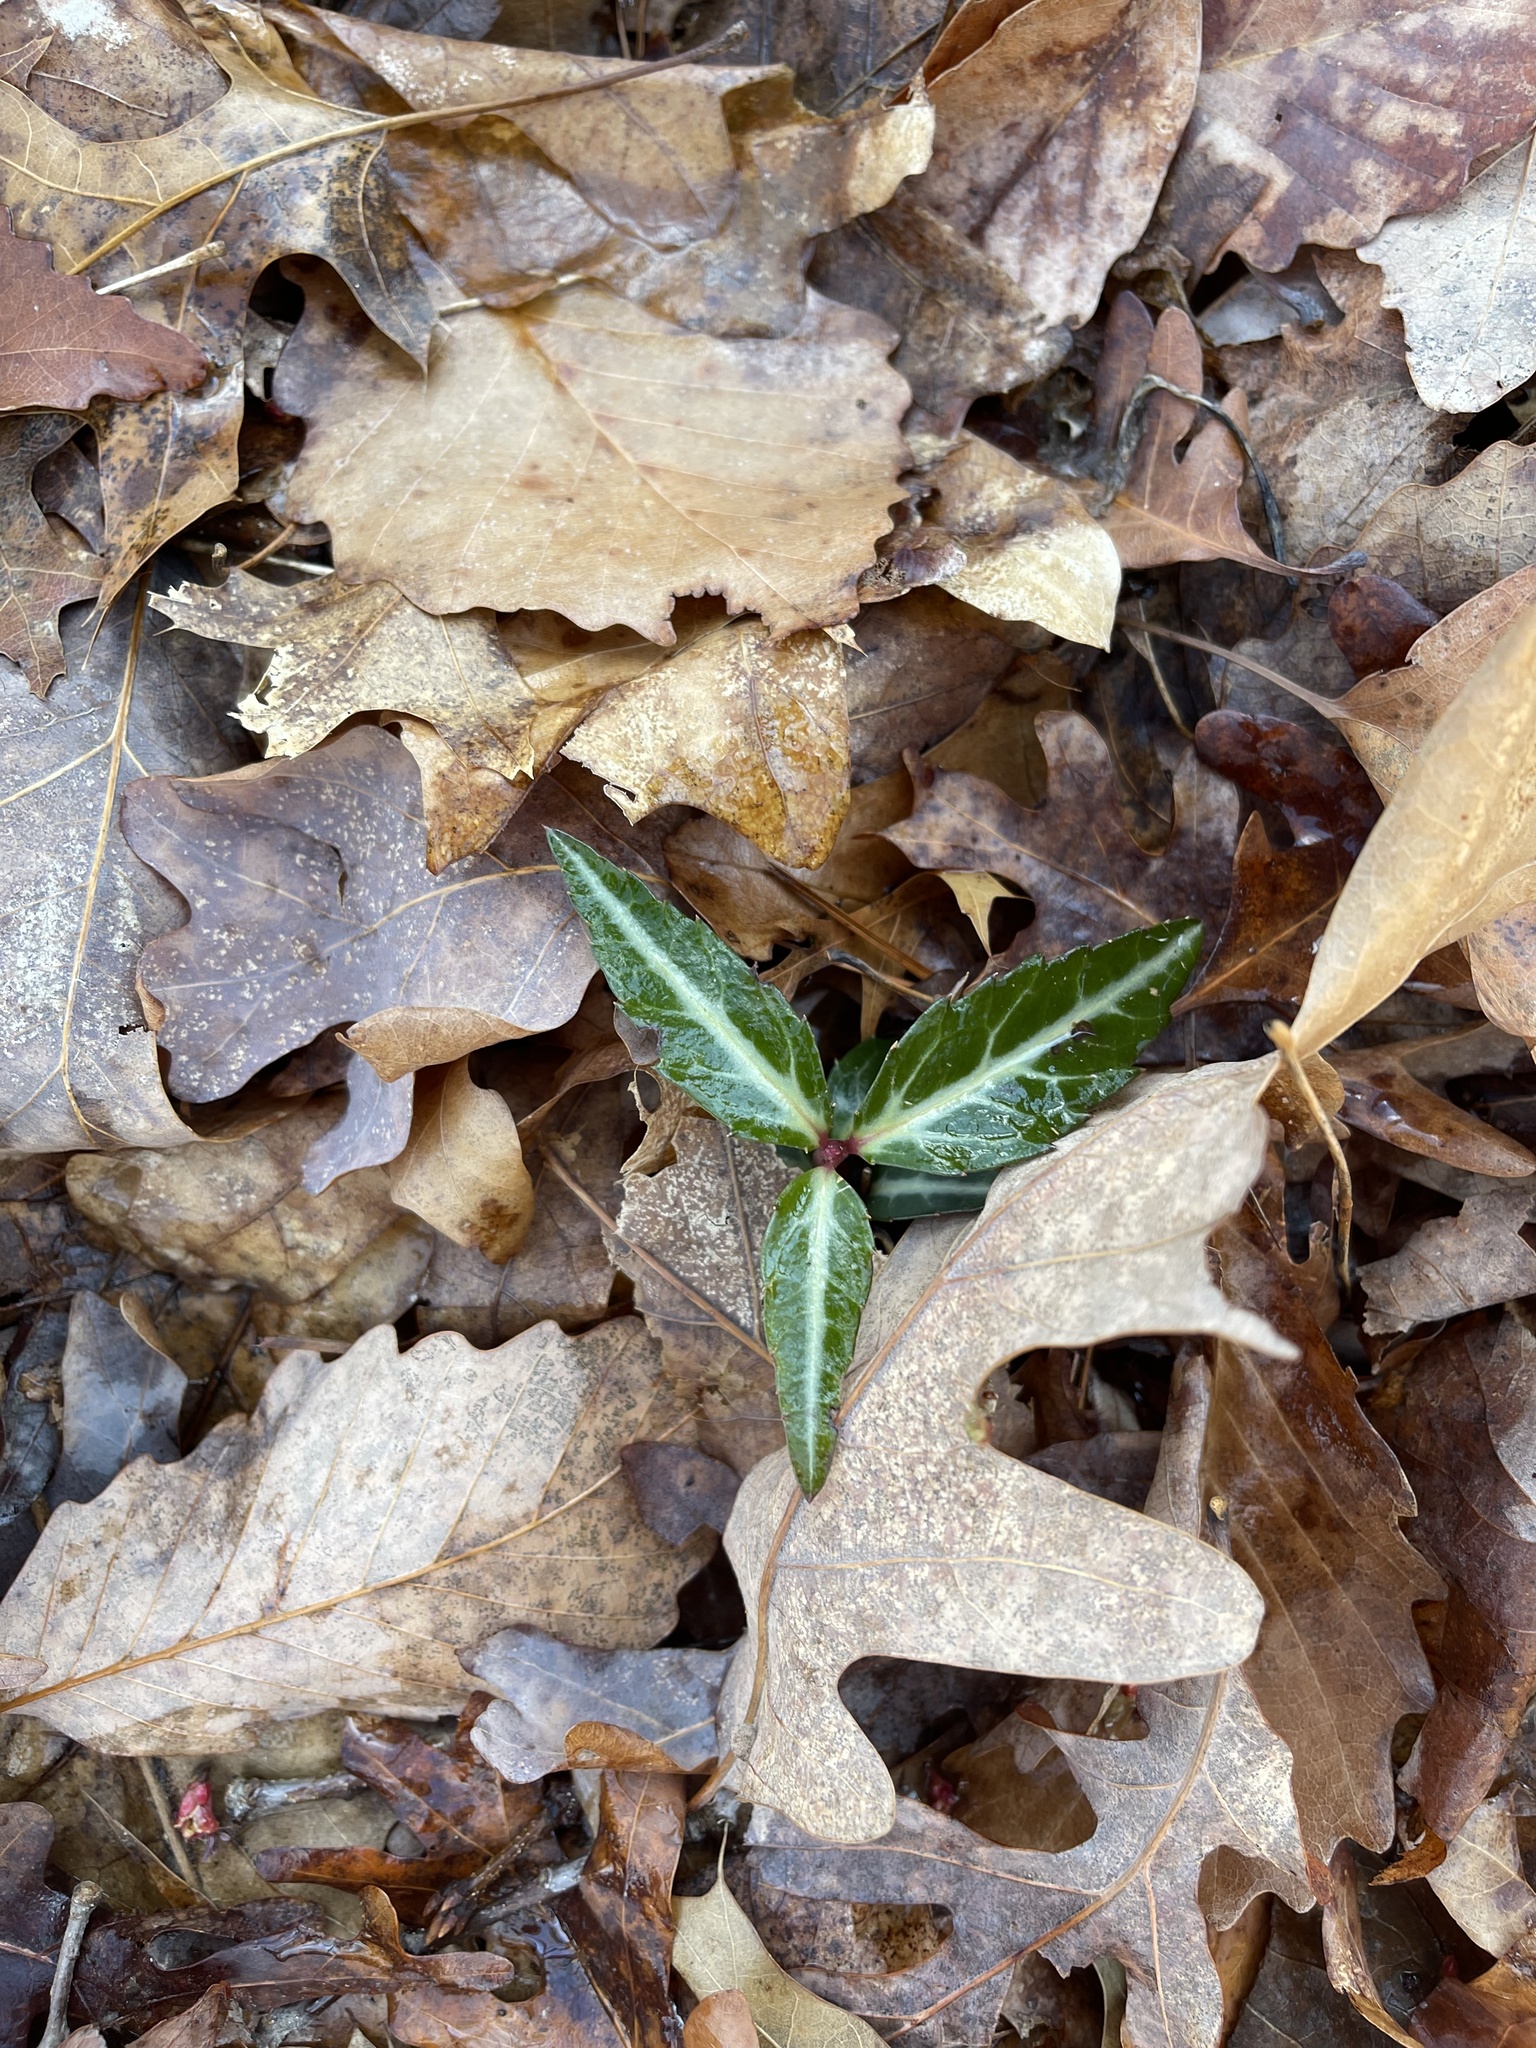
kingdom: Plantae
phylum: Tracheophyta
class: Magnoliopsida
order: Ericales
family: Ericaceae
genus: Chimaphila
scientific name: Chimaphila maculata
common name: Spotted pipsissewa
